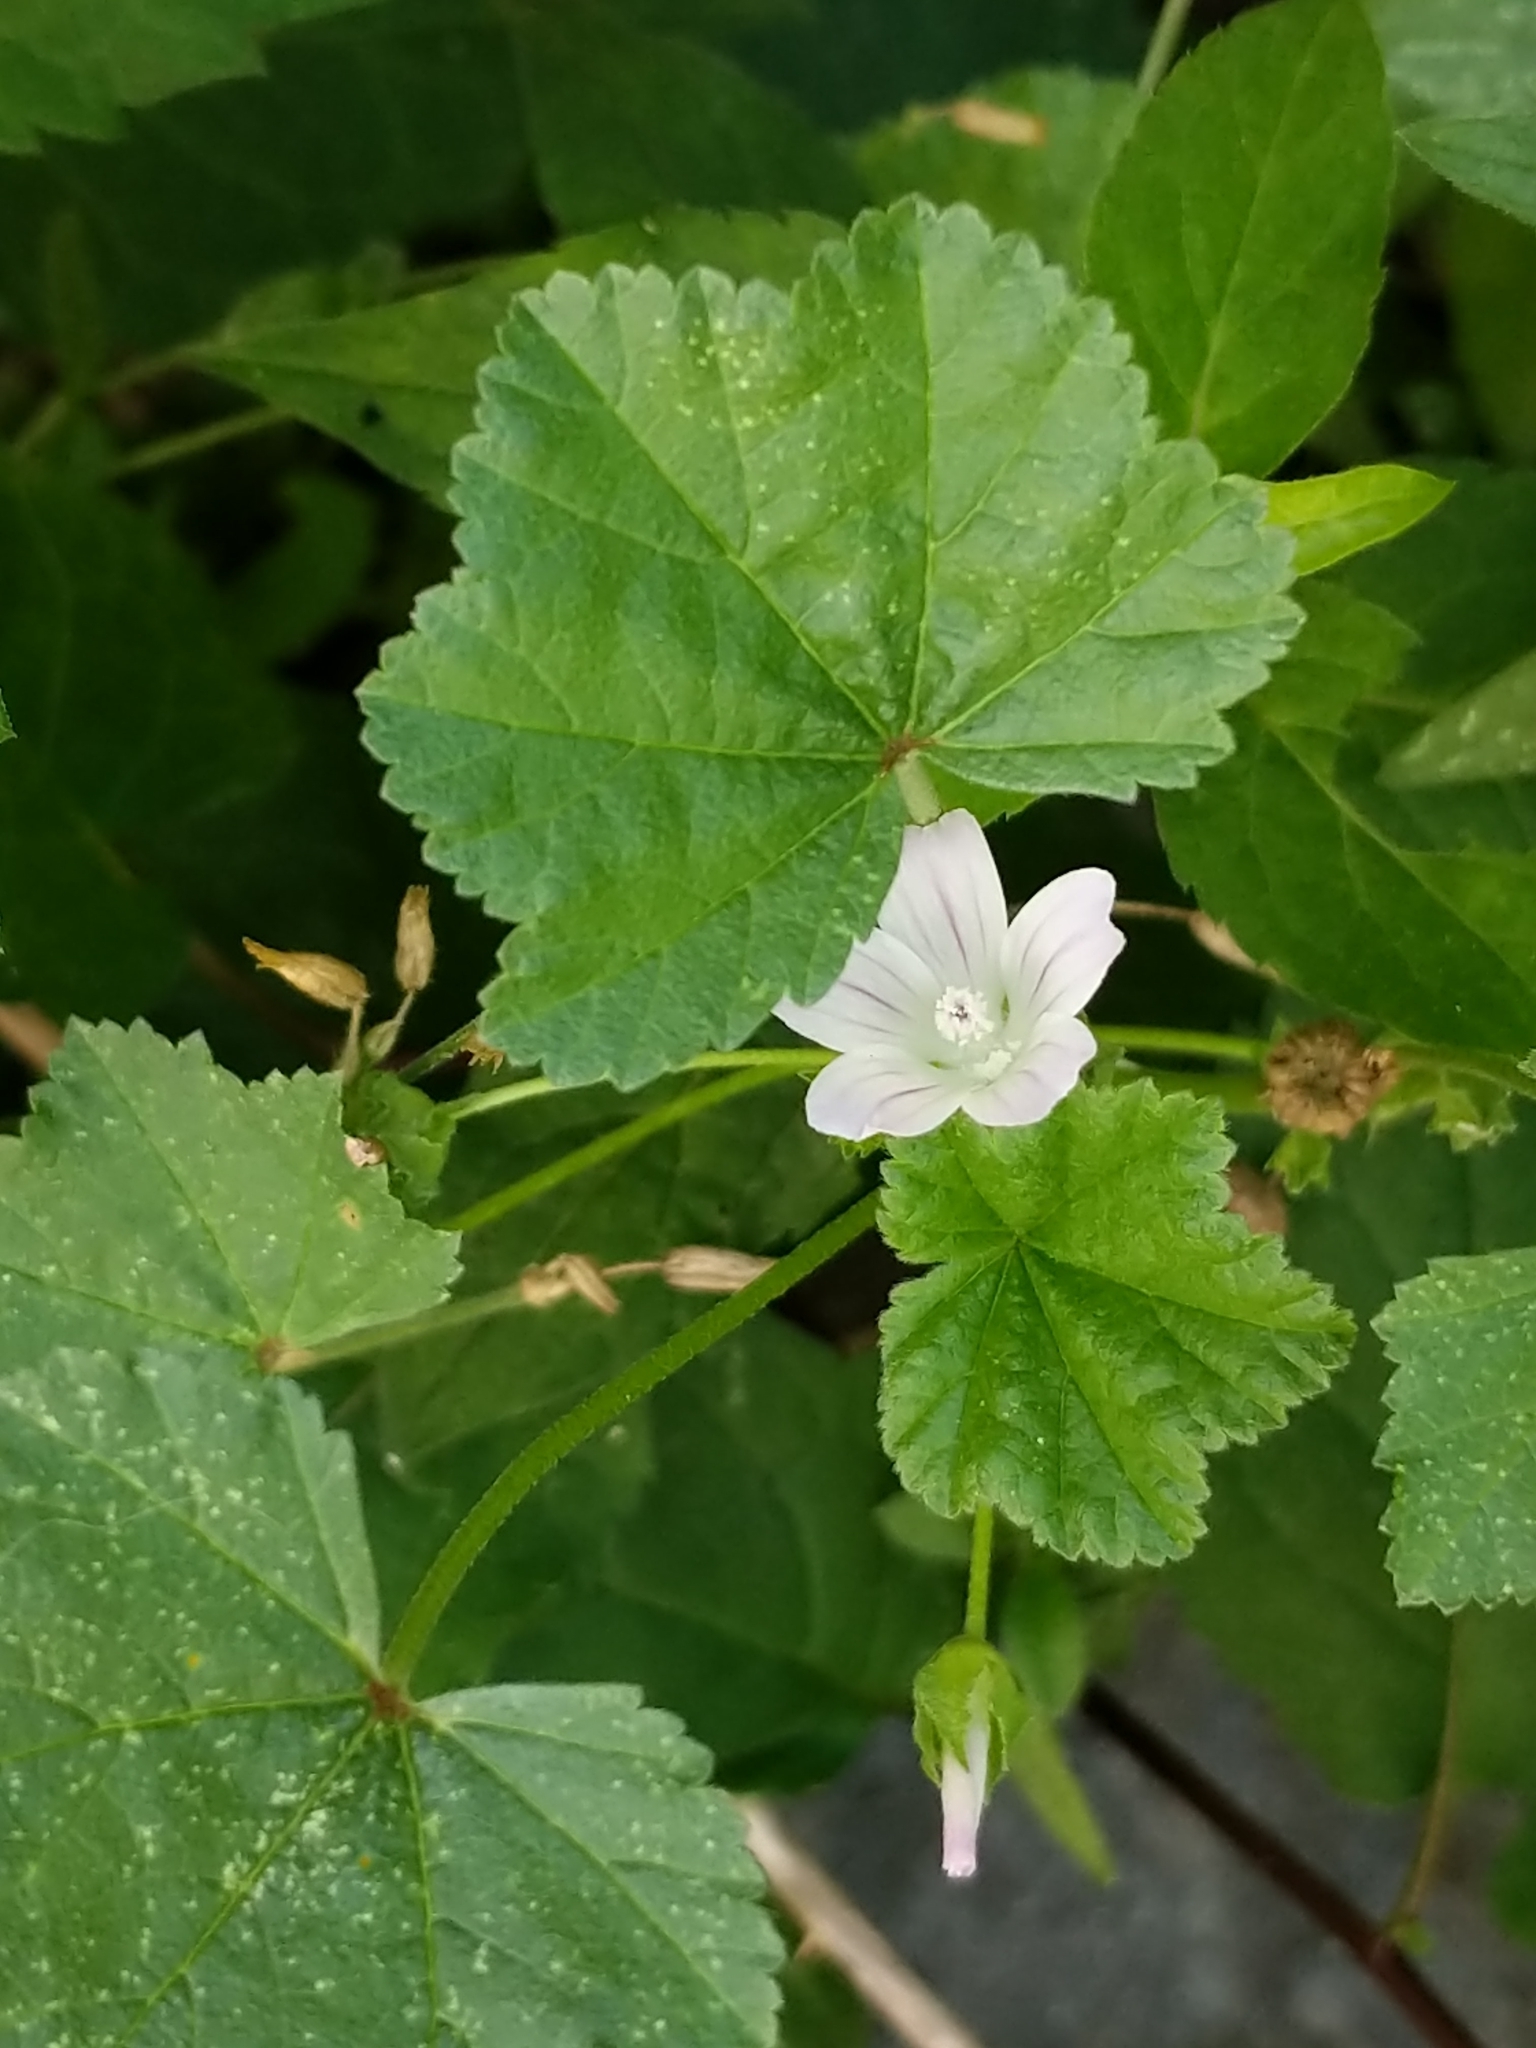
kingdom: Plantae
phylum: Tracheophyta
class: Magnoliopsida
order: Malvales
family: Malvaceae
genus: Malva
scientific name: Malva neglecta
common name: Common mallow
